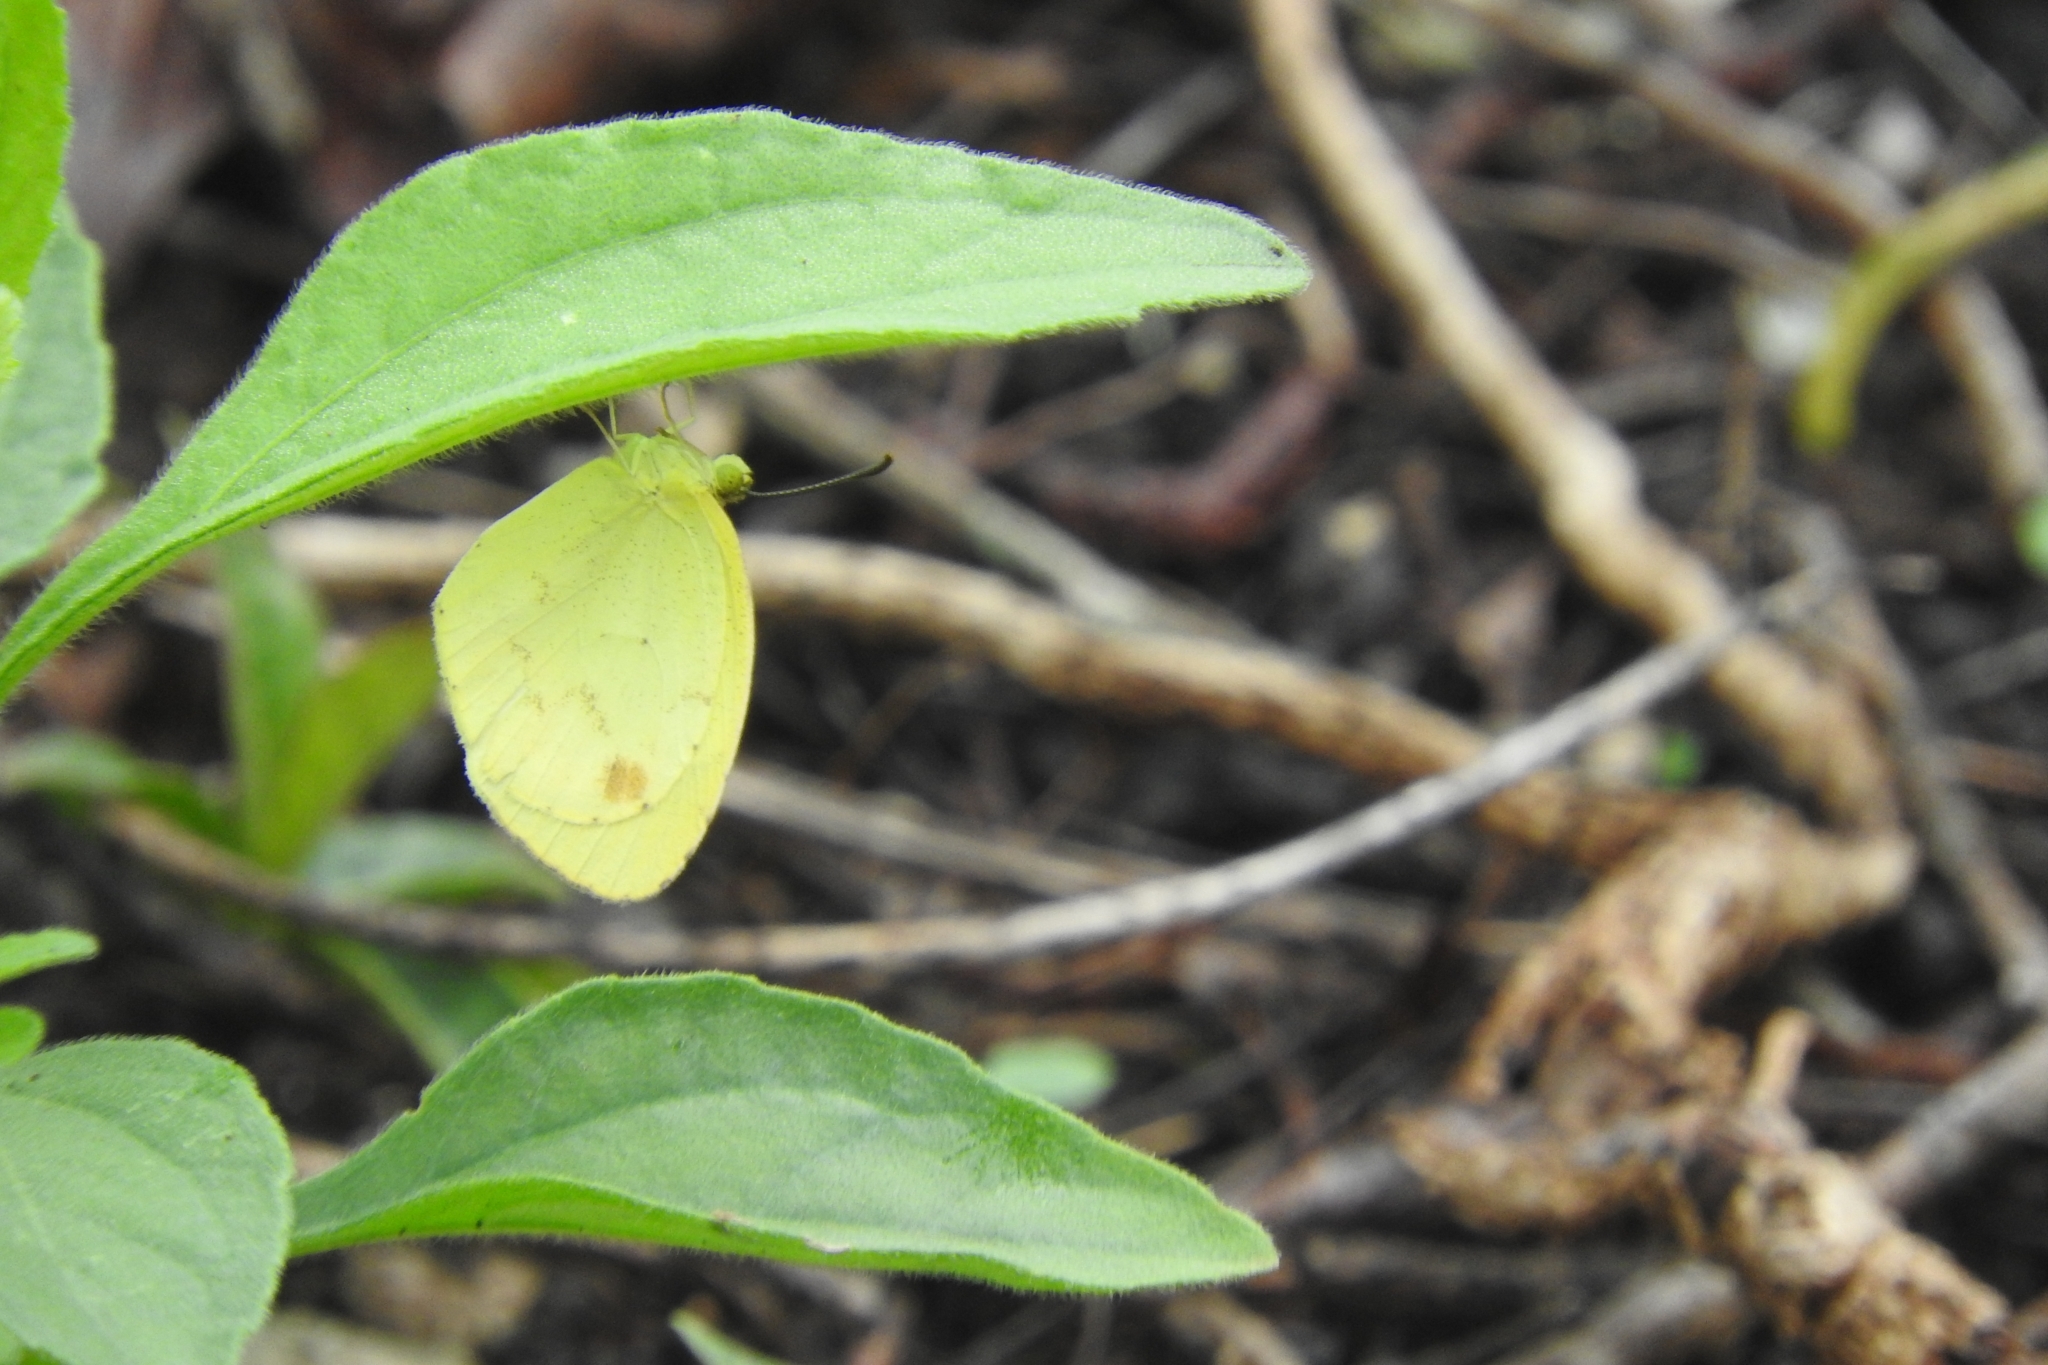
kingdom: Animalia
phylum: Arthropoda
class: Insecta
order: Lepidoptera
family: Pieridae
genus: Pyrisitia
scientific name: Pyrisitia nise
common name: Mimosa yellow
